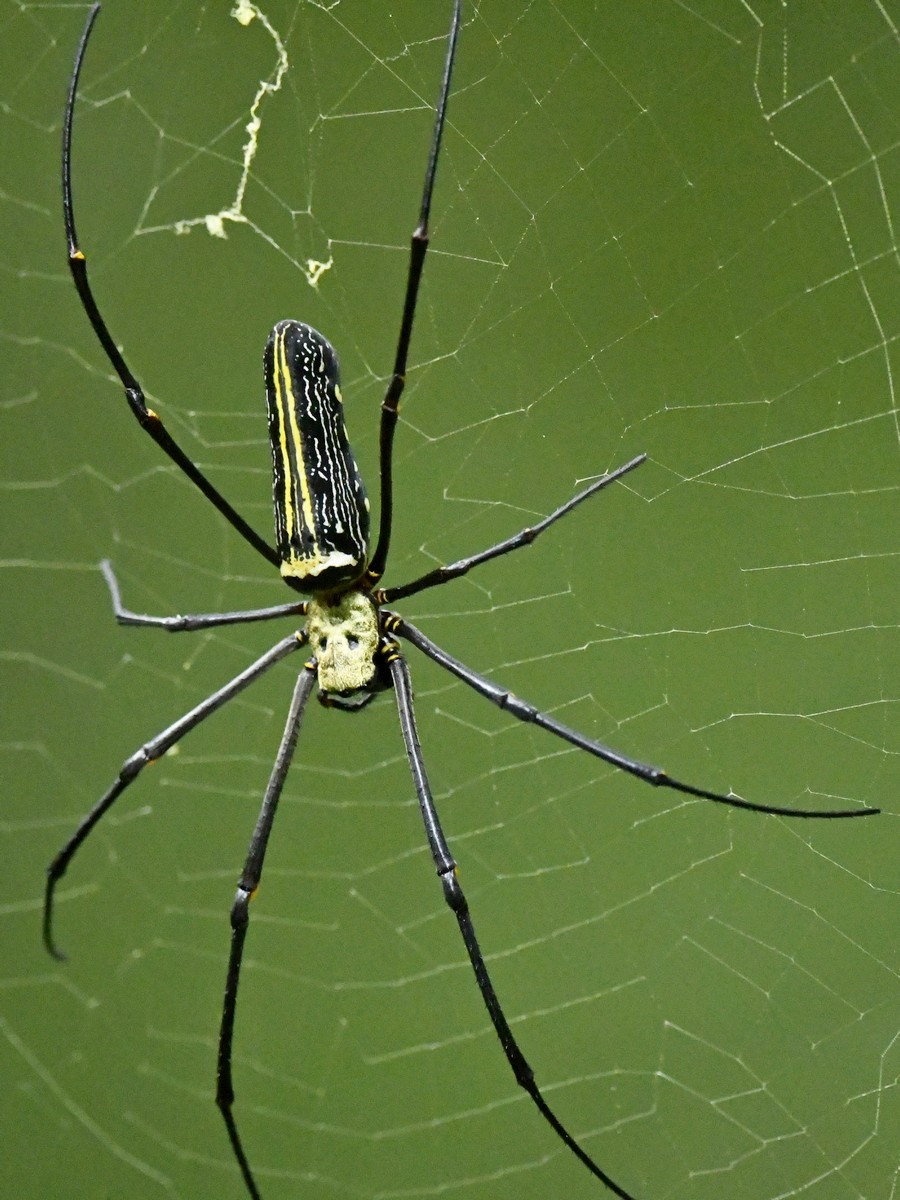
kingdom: Animalia
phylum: Arthropoda
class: Arachnida
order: Araneae
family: Araneidae
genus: Nephila
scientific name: Nephila pilipes
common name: Giant golden orb weaver
